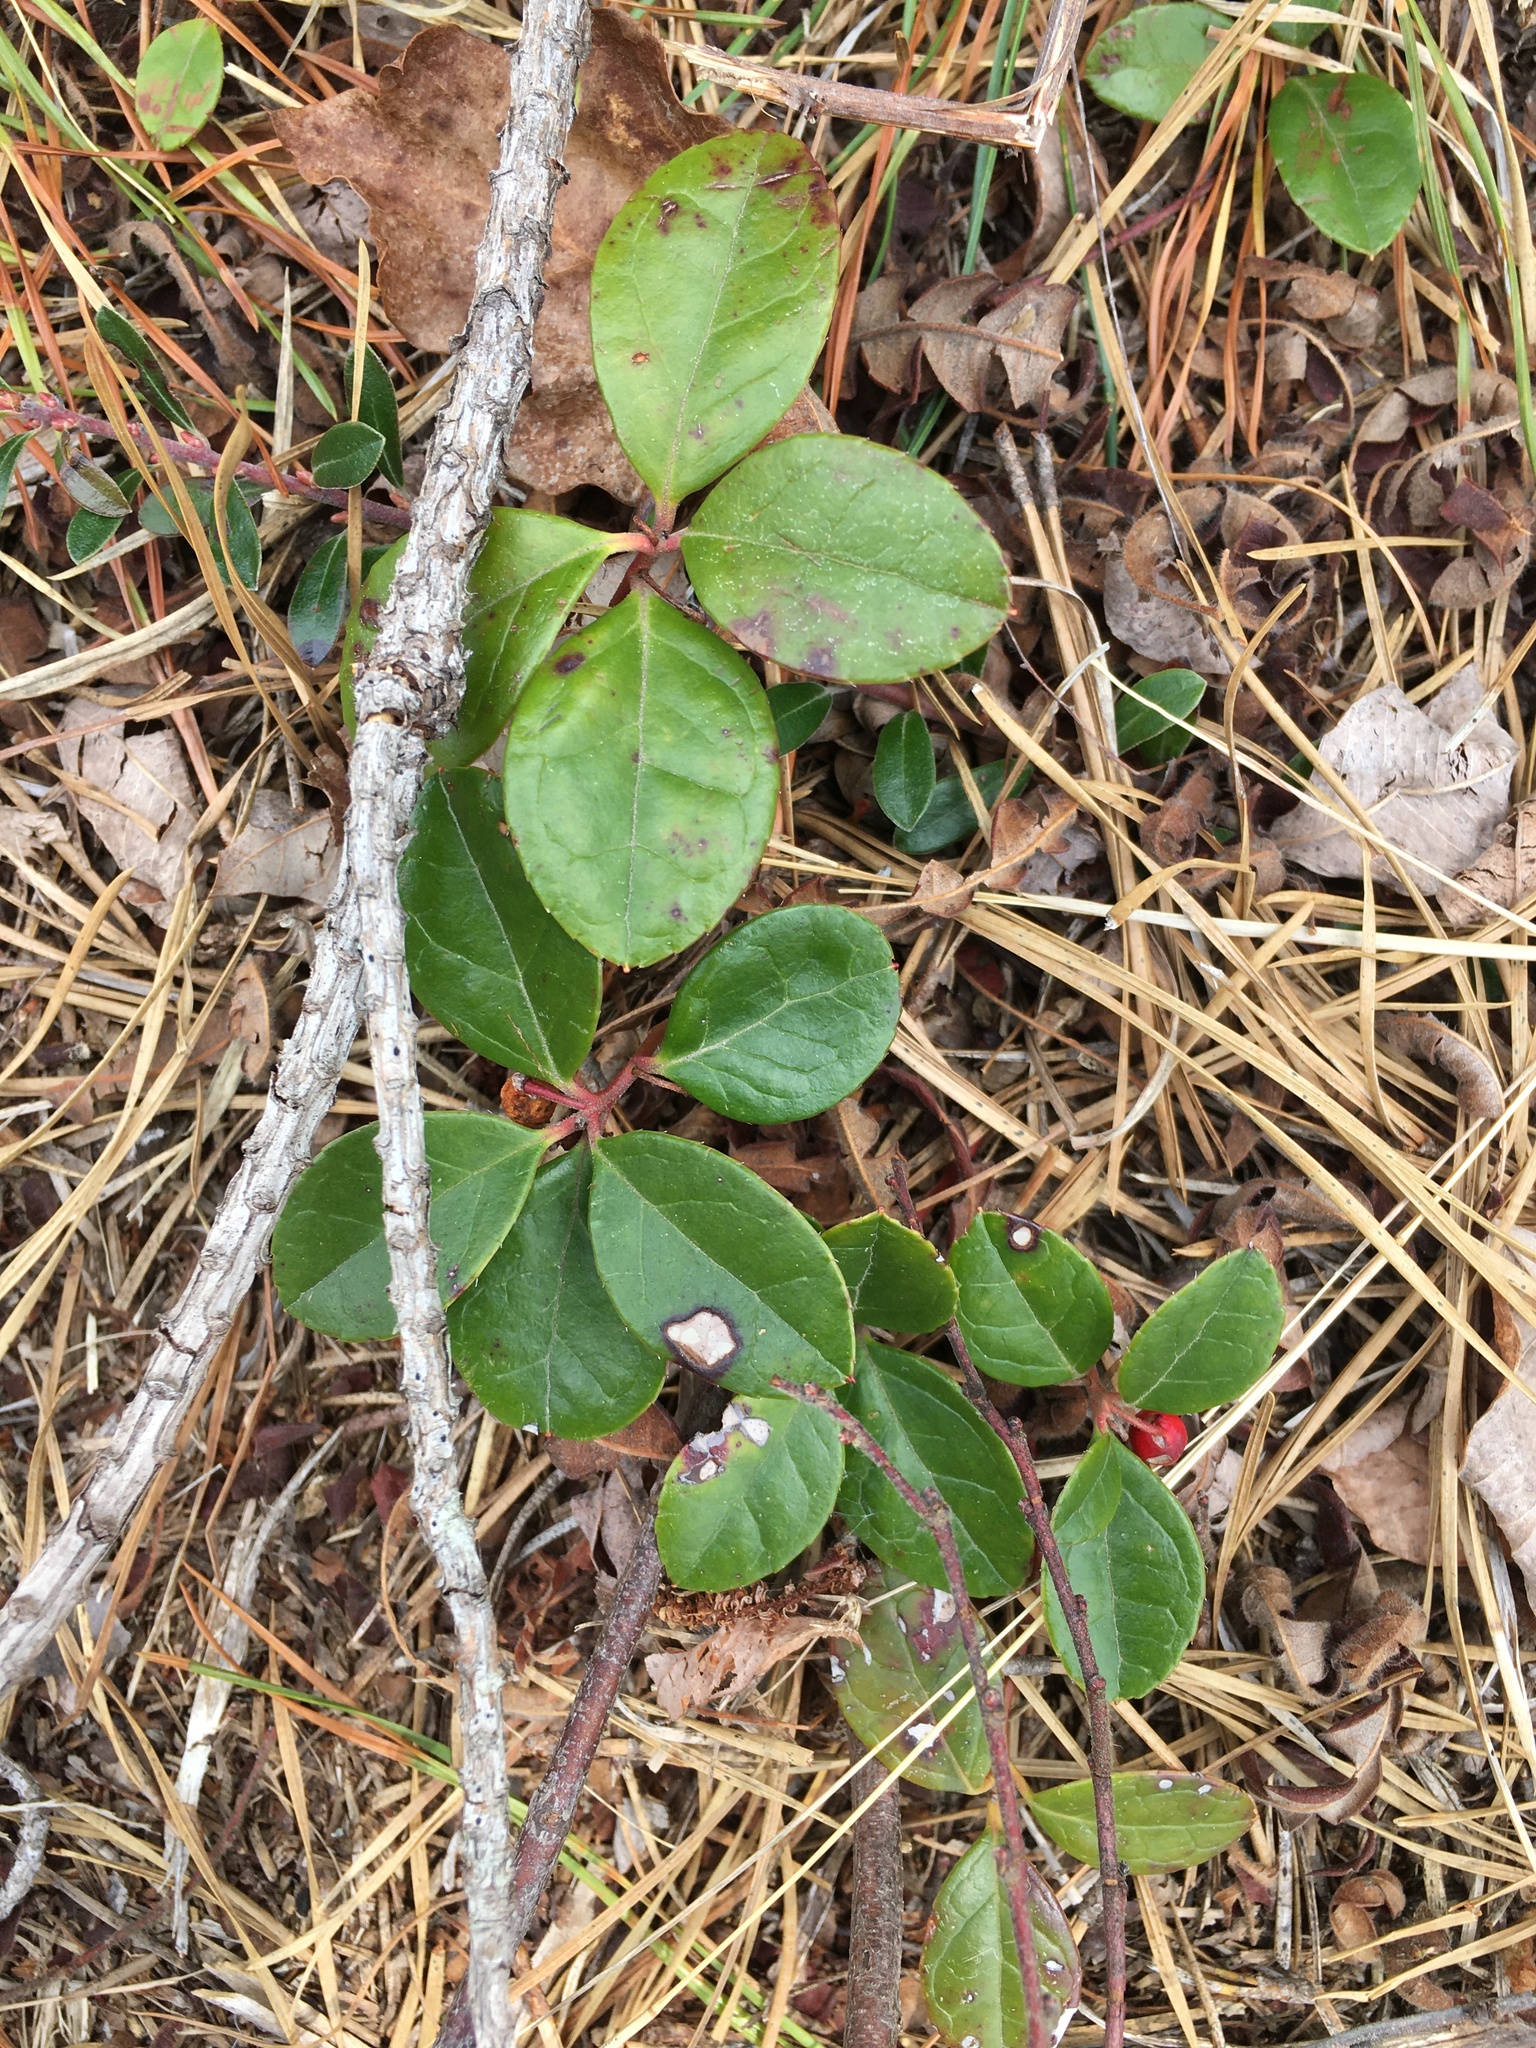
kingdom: Plantae
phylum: Tracheophyta
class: Magnoliopsida
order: Ericales
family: Ericaceae
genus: Gaultheria
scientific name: Gaultheria procumbens
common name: Checkerberry
